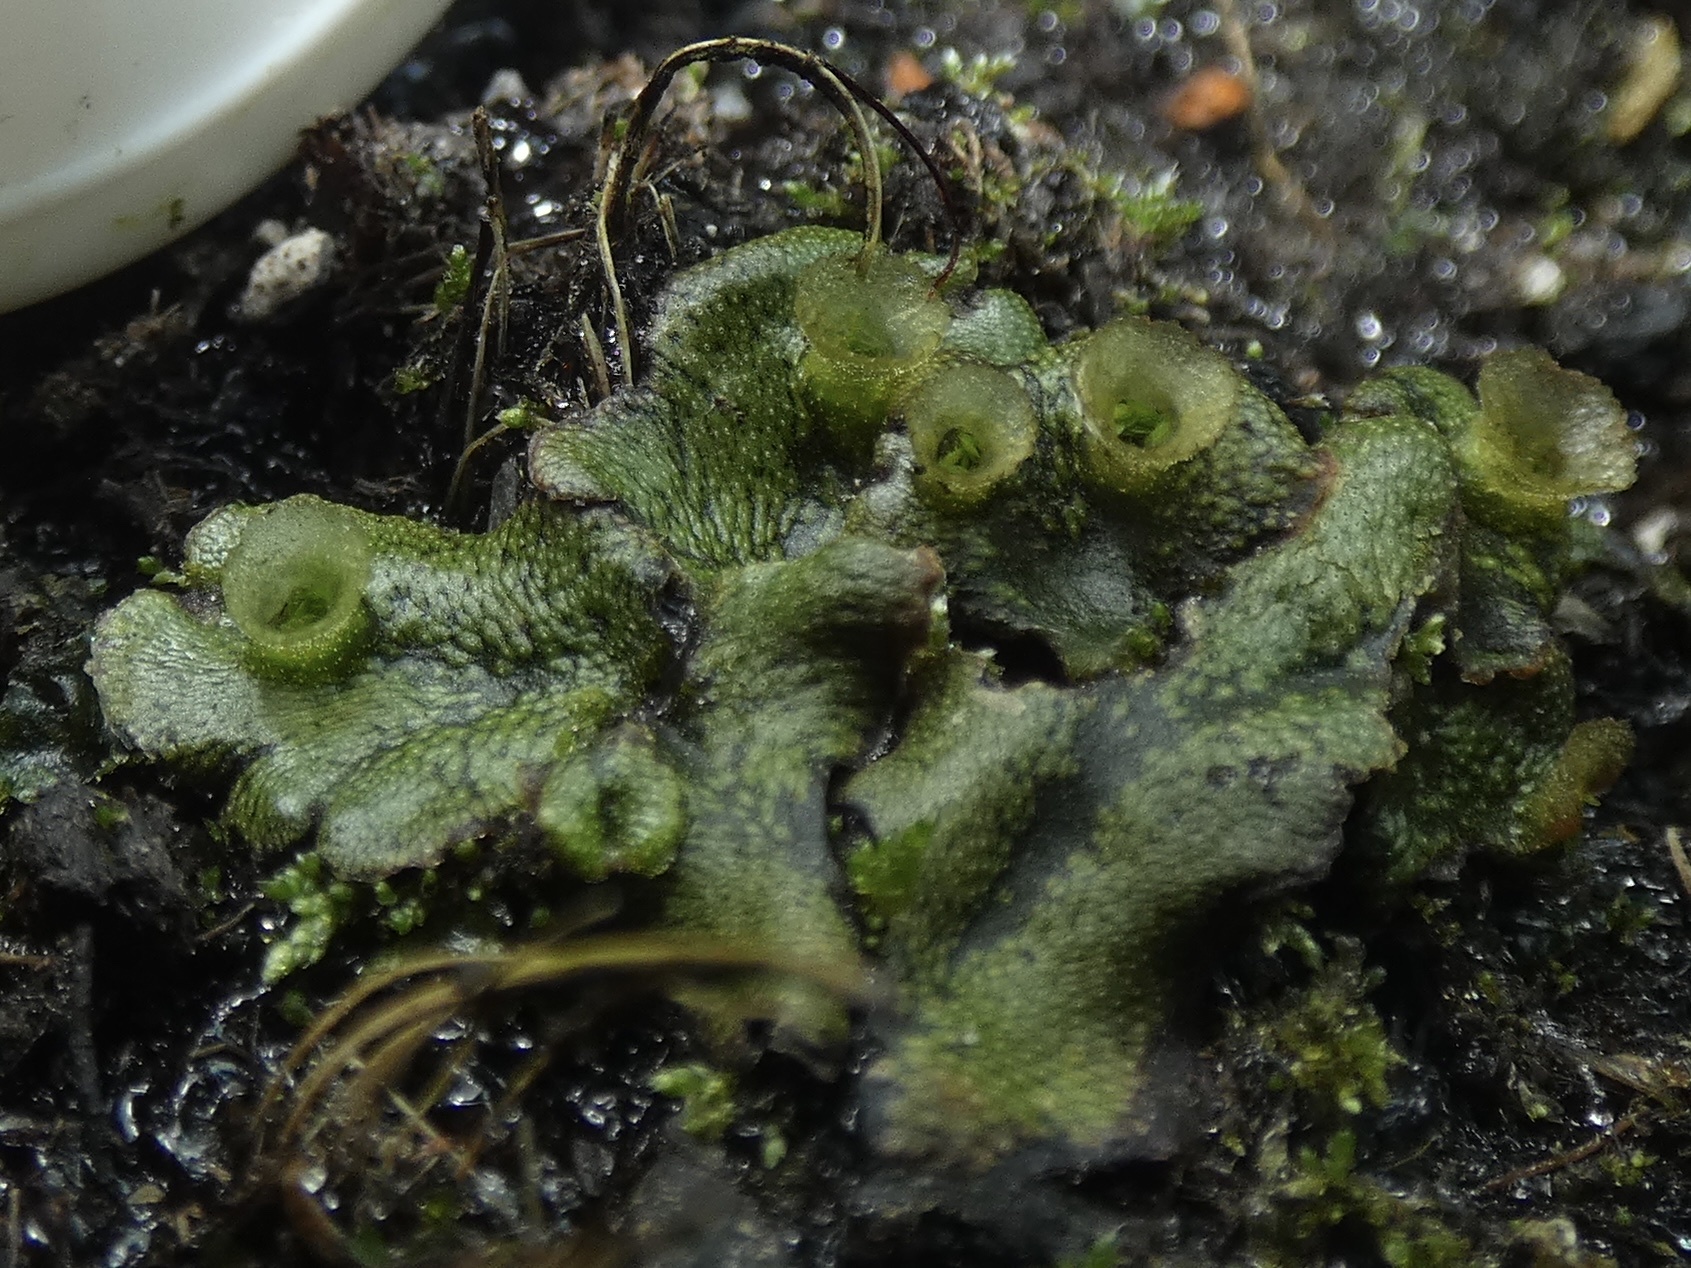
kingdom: Plantae
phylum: Marchantiophyta
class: Marchantiopsida
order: Marchantiales
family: Marchantiaceae
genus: Marchantia
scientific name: Marchantia polymorpha
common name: Common liverwort
